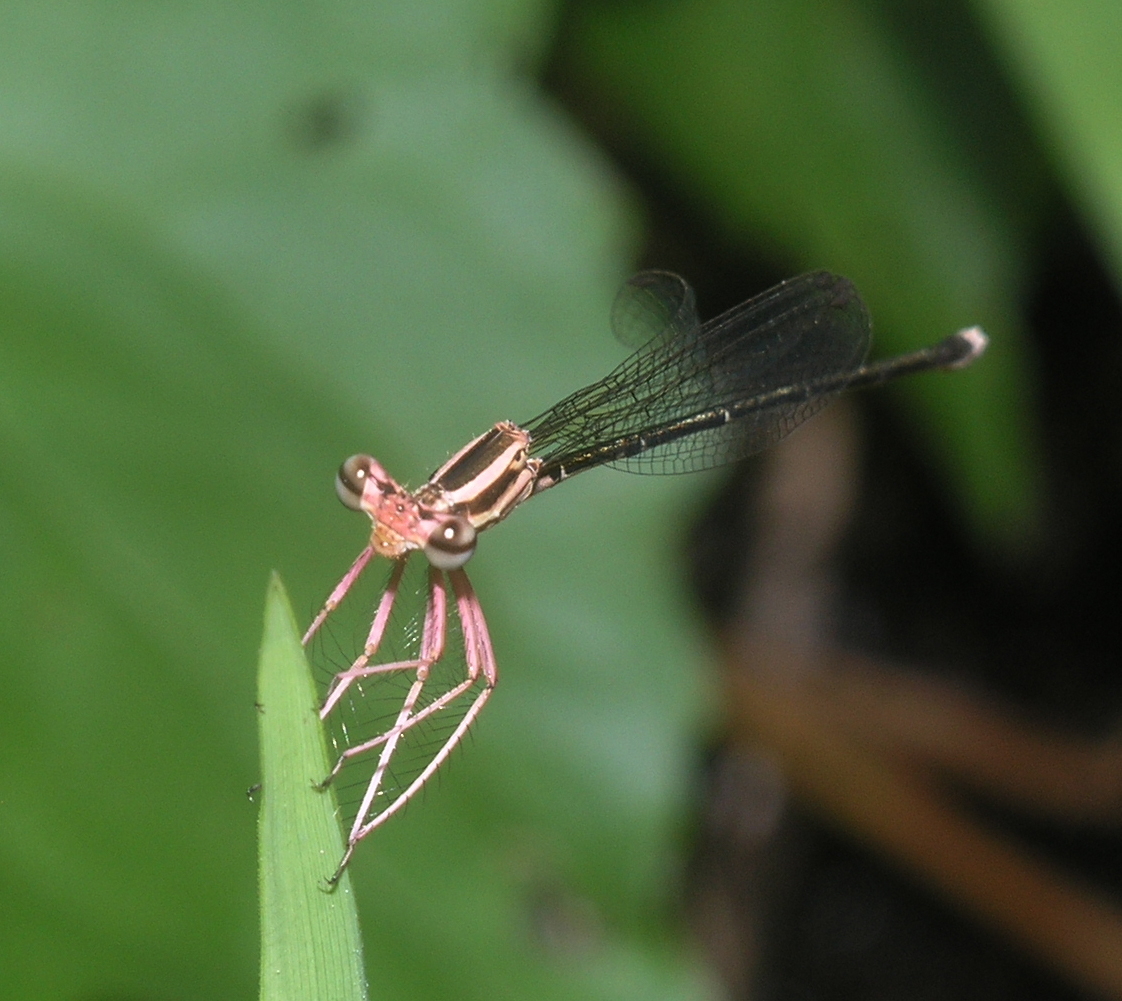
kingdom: Animalia
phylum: Arthropoda
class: Insecta
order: Odonata
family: Platycnemididae
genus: Pseudocopera
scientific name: Pseudocopera ciliata
